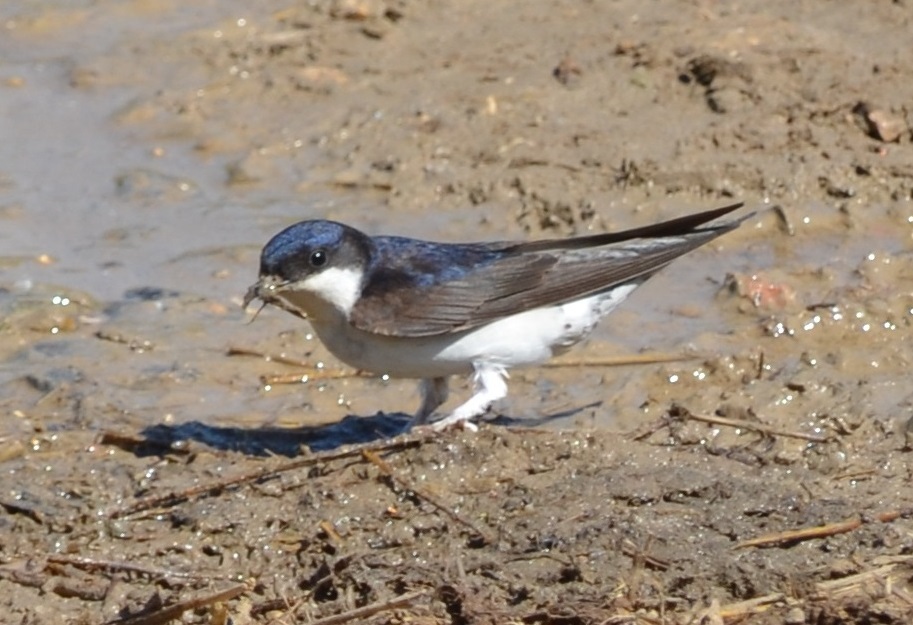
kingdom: Animalia
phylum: Chordata
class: Aves
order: Passeriformes
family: Hirundinidae
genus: Delichon
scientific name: Delichon urbicum
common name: Common house martin
